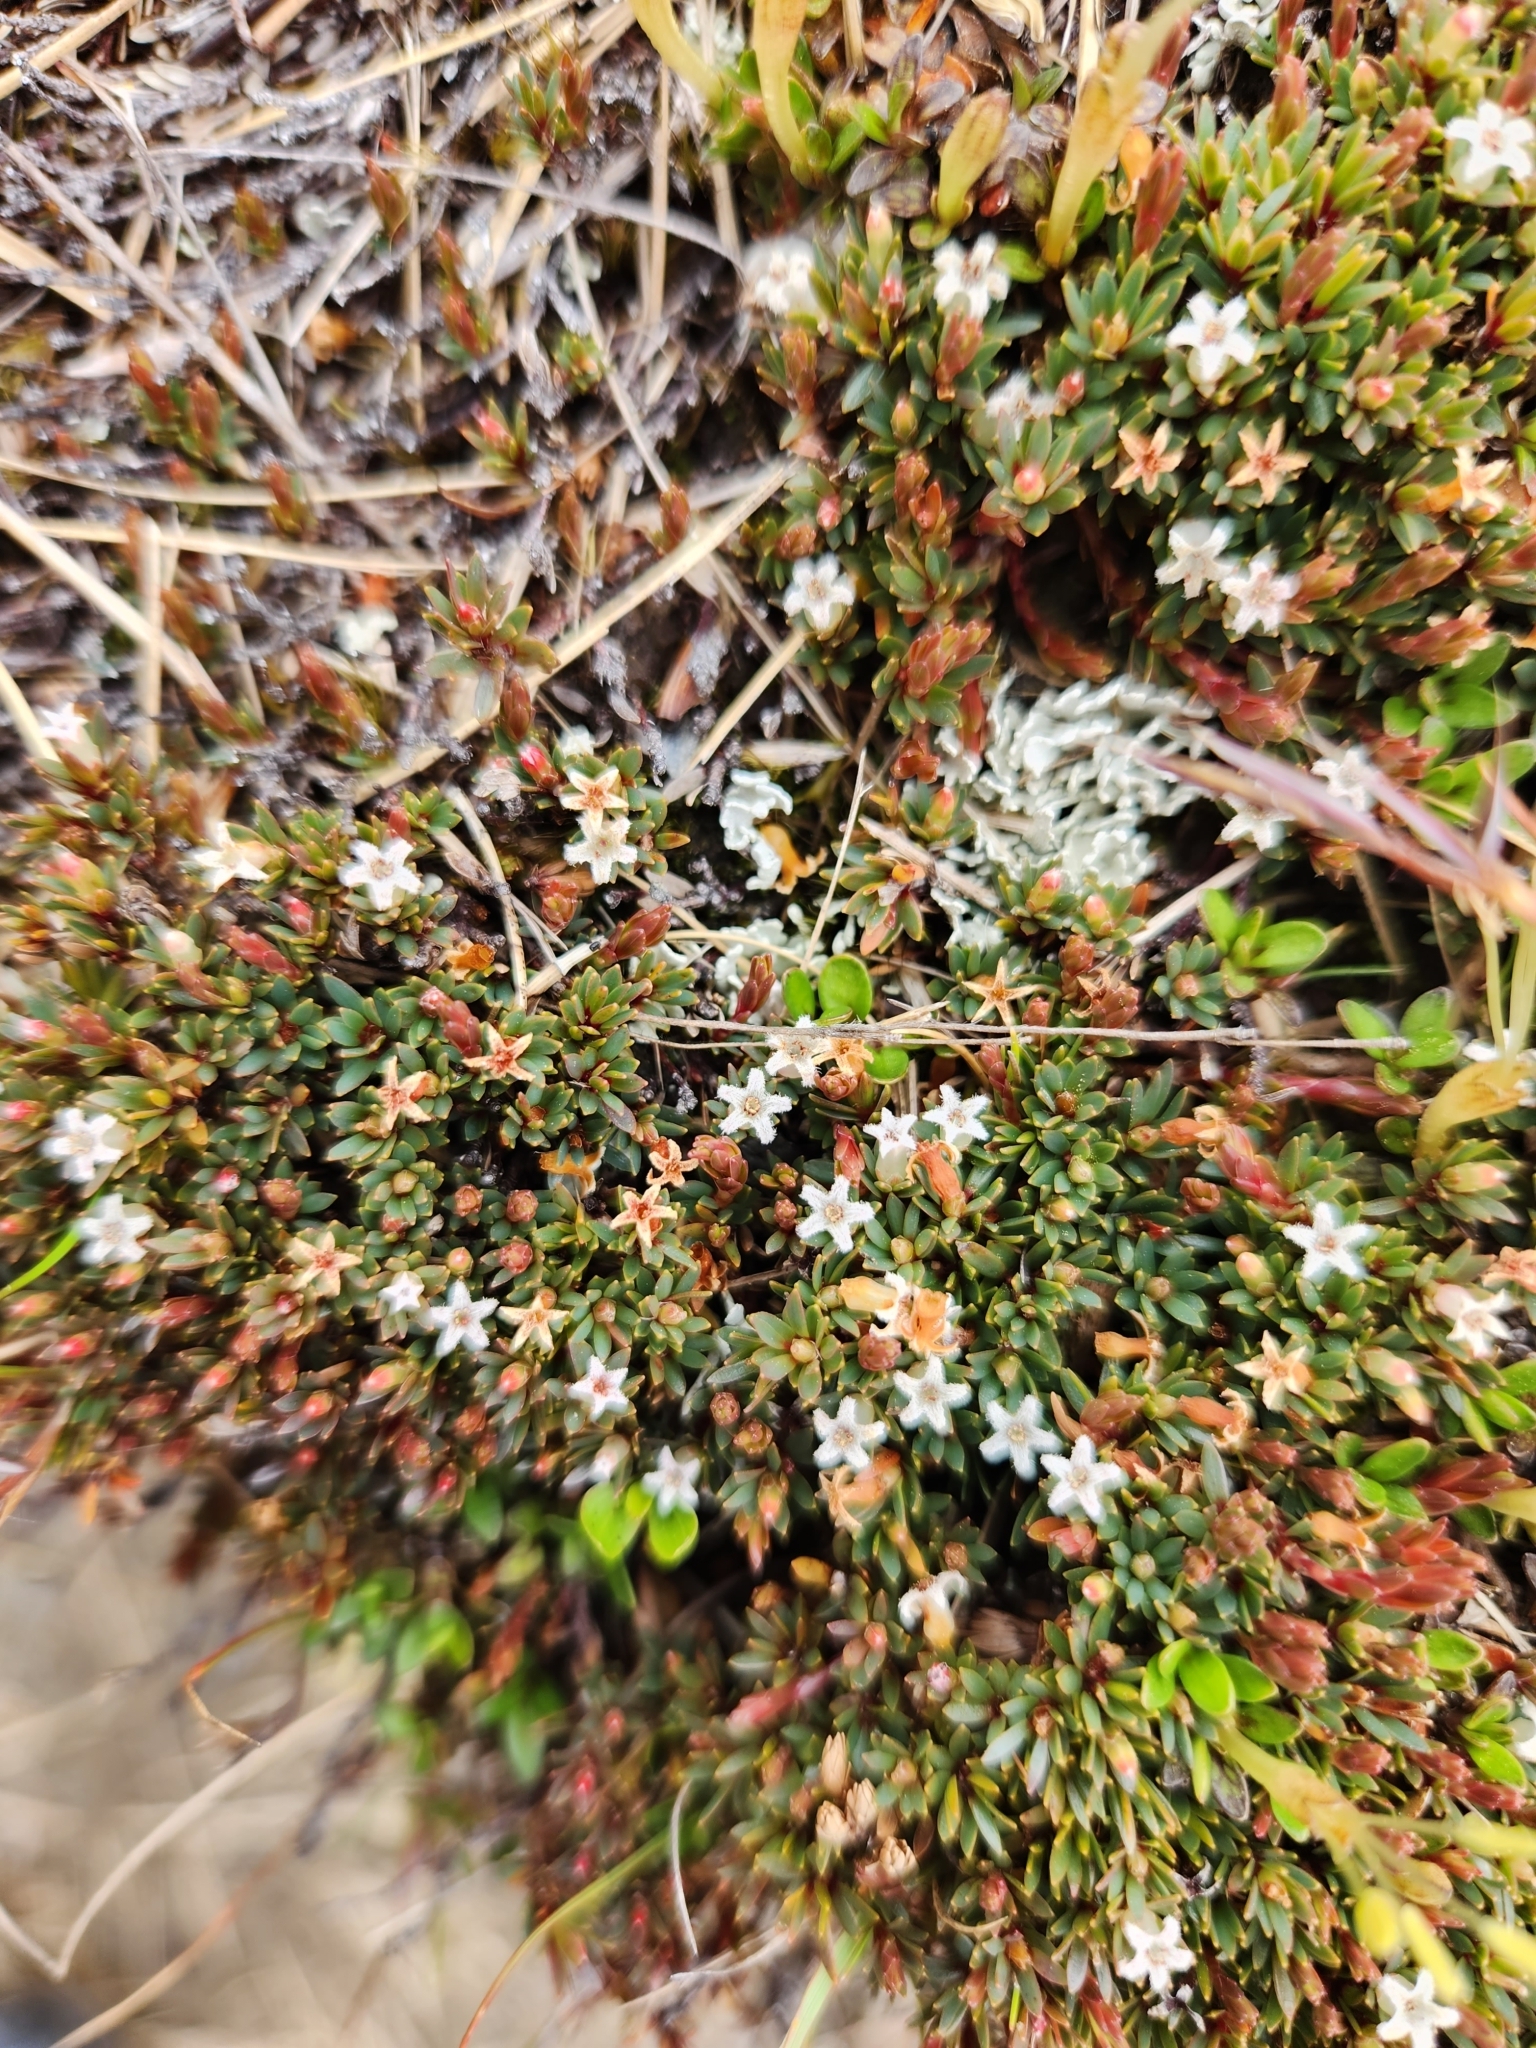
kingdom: Plantae
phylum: Tracheophyta
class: Magnoliopsida
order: Ericales
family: Ericaceae
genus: Pentachondra
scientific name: Pentachondra pumila
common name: Carpet-heath
